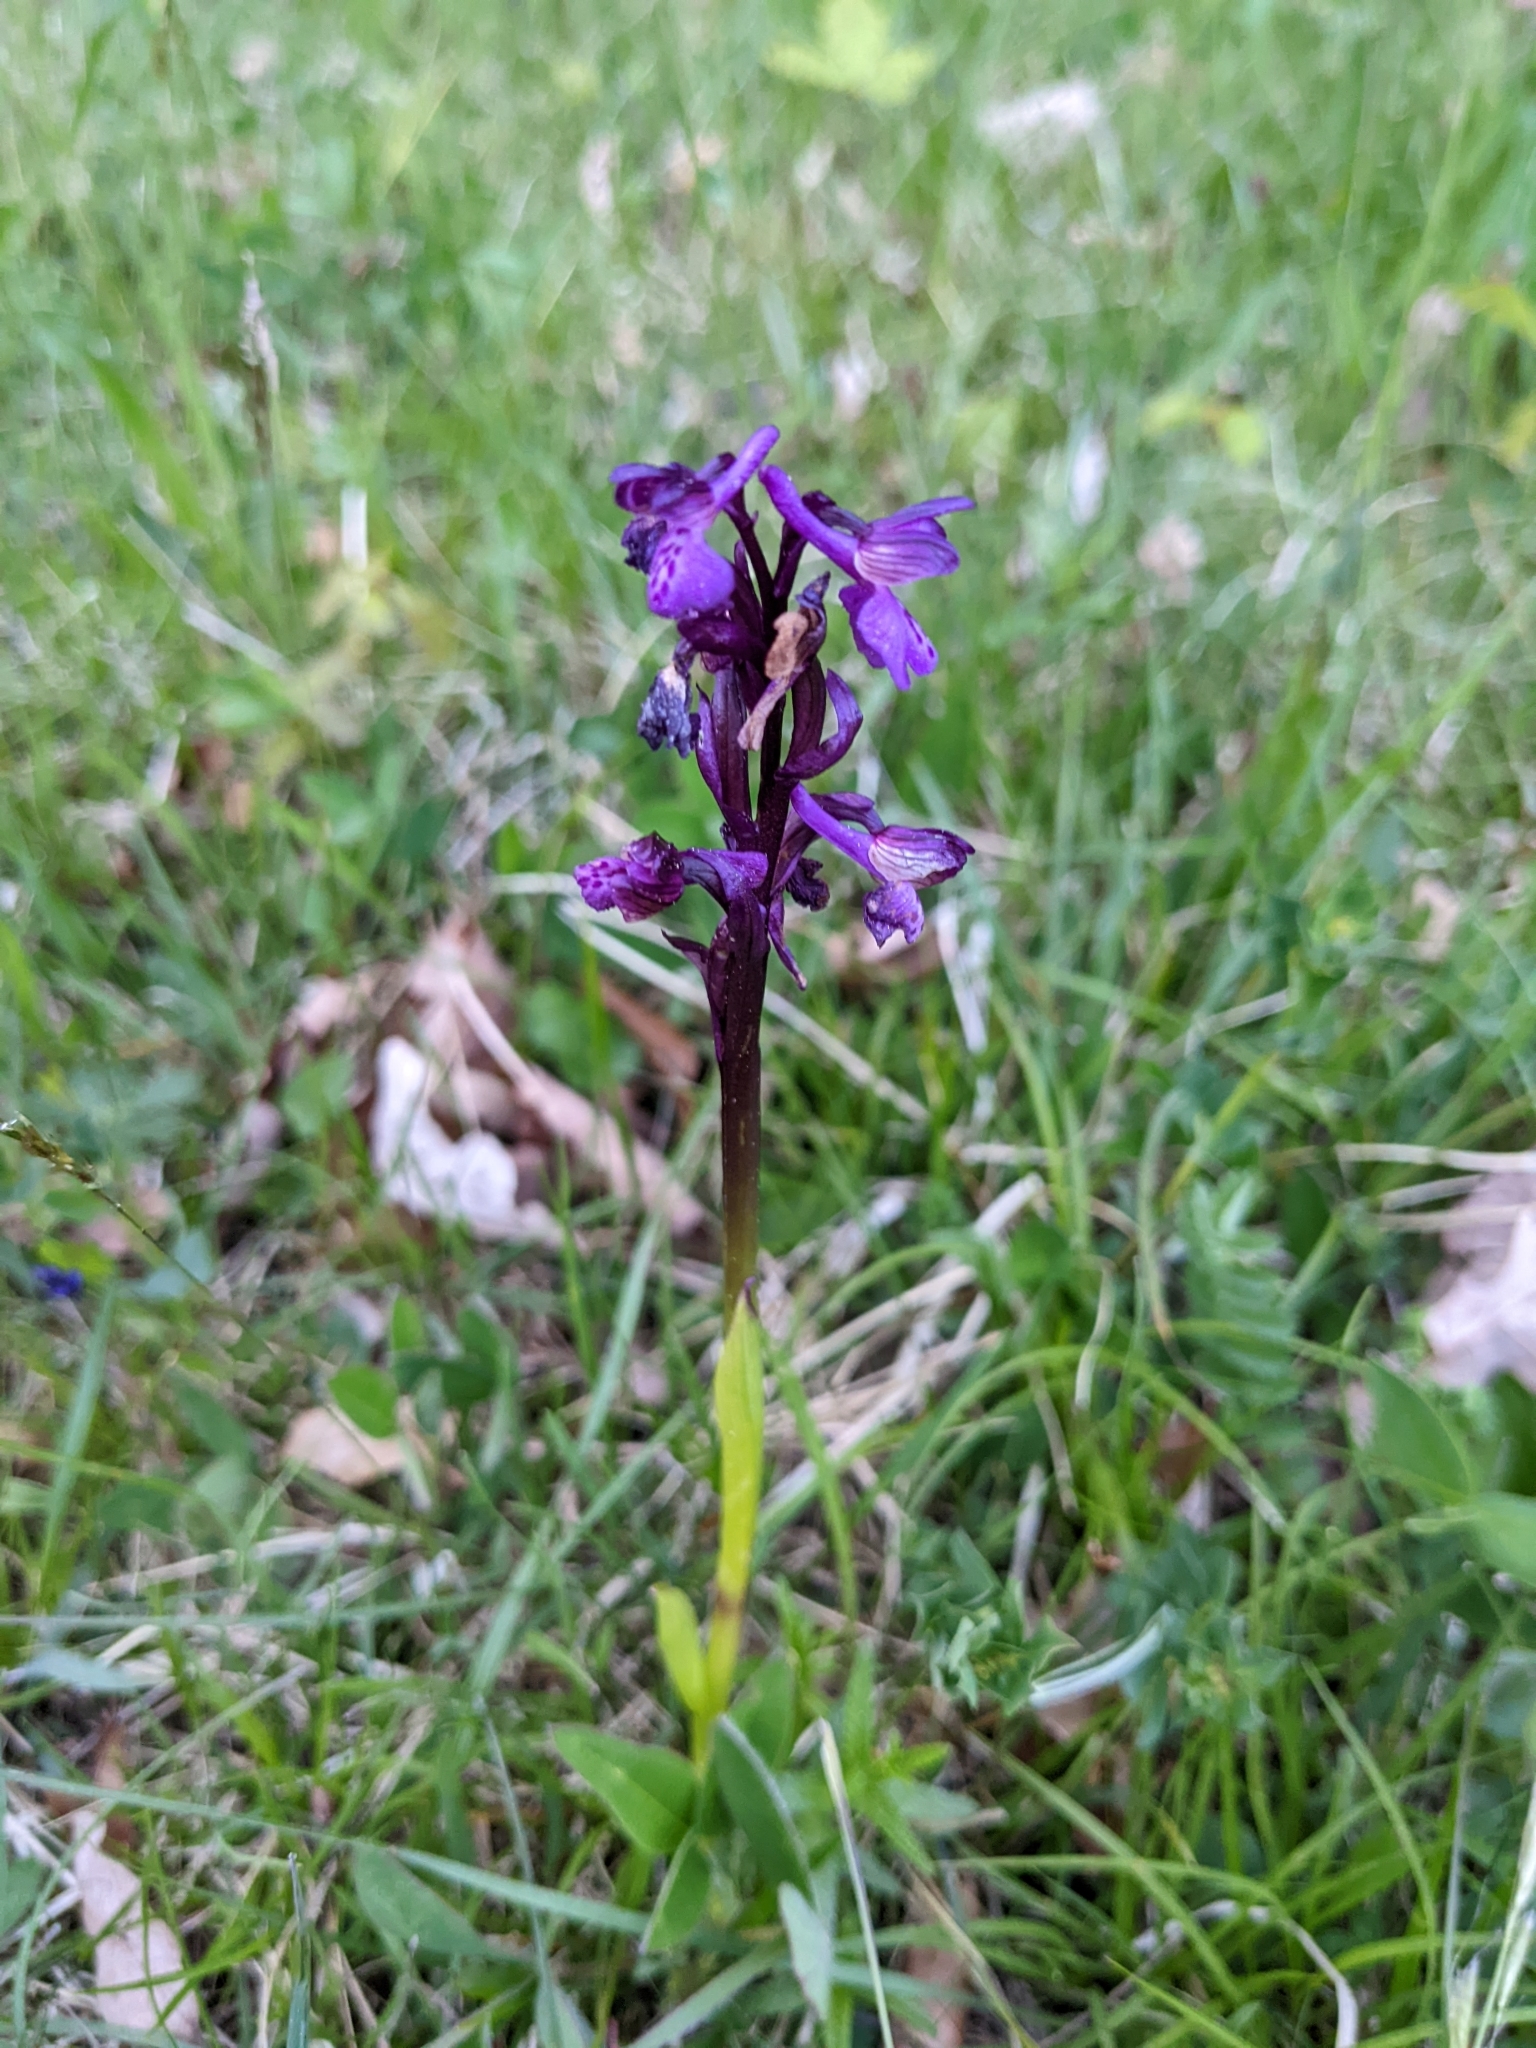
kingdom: Plantae
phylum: Tracheophyta
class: Liliopsida
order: Asparagales
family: Orchidaceae
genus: Anacamptis
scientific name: Anacamptis morio
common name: Green-winged orchid
